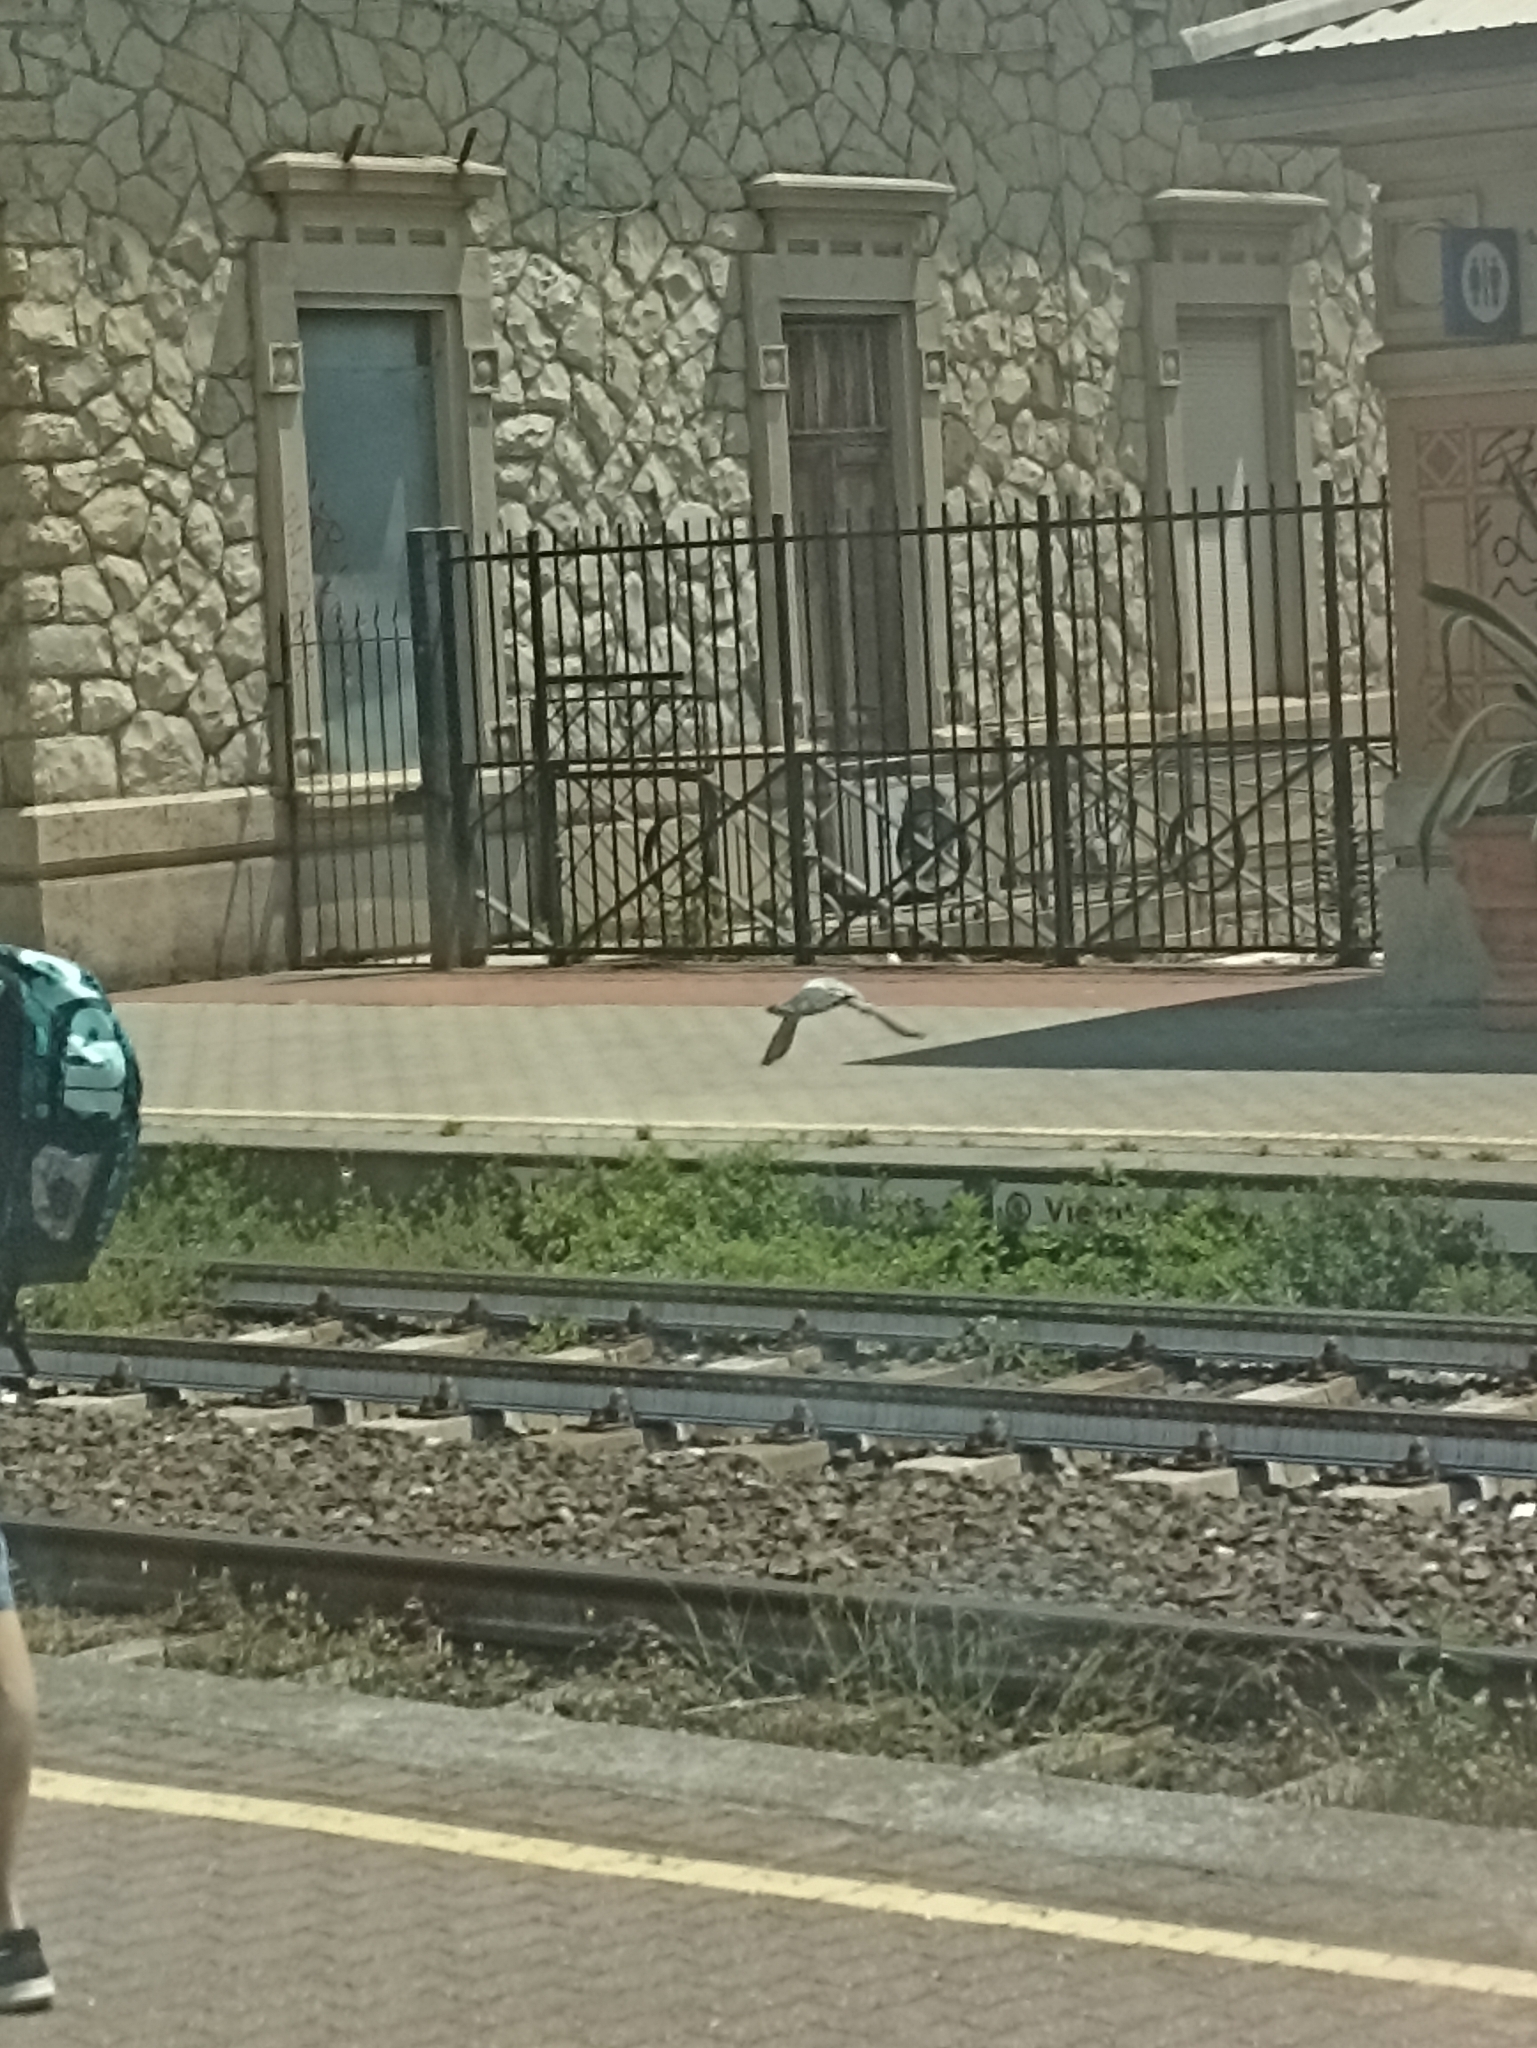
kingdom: Animalia
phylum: Chordata
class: Aves
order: Columbiformes
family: Columbidae
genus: Columba
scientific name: Columba livia
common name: Rock pigeon
